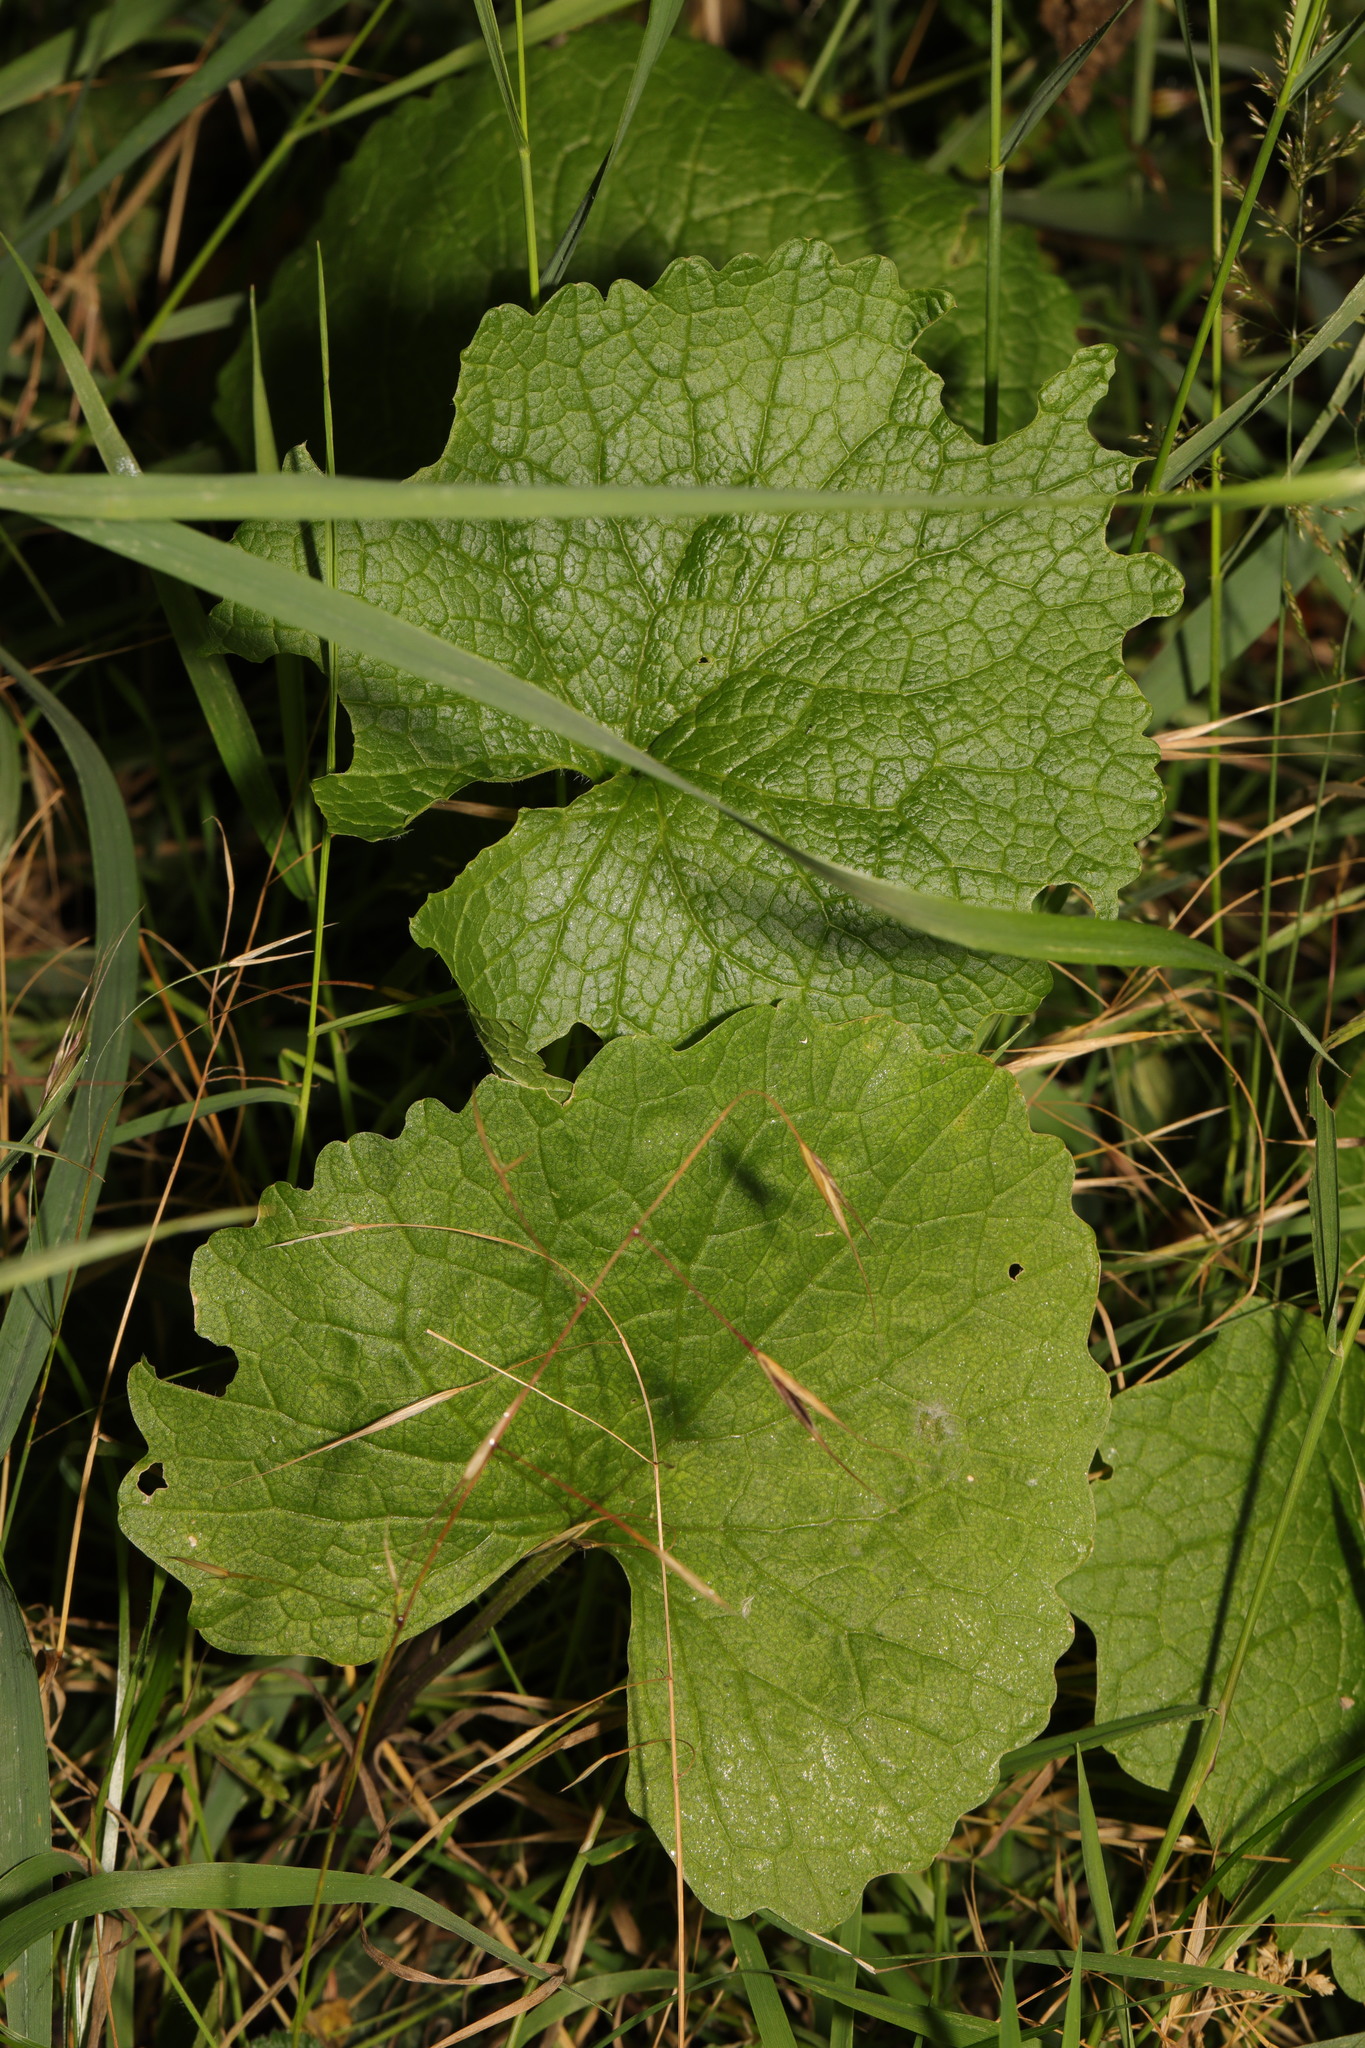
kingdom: Plantae
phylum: Tracheophyta
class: Magnoliopsida
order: Brassicales
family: Brassicaceae
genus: Alliaria
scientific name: Alliaria petiolata
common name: Garlic mustard
